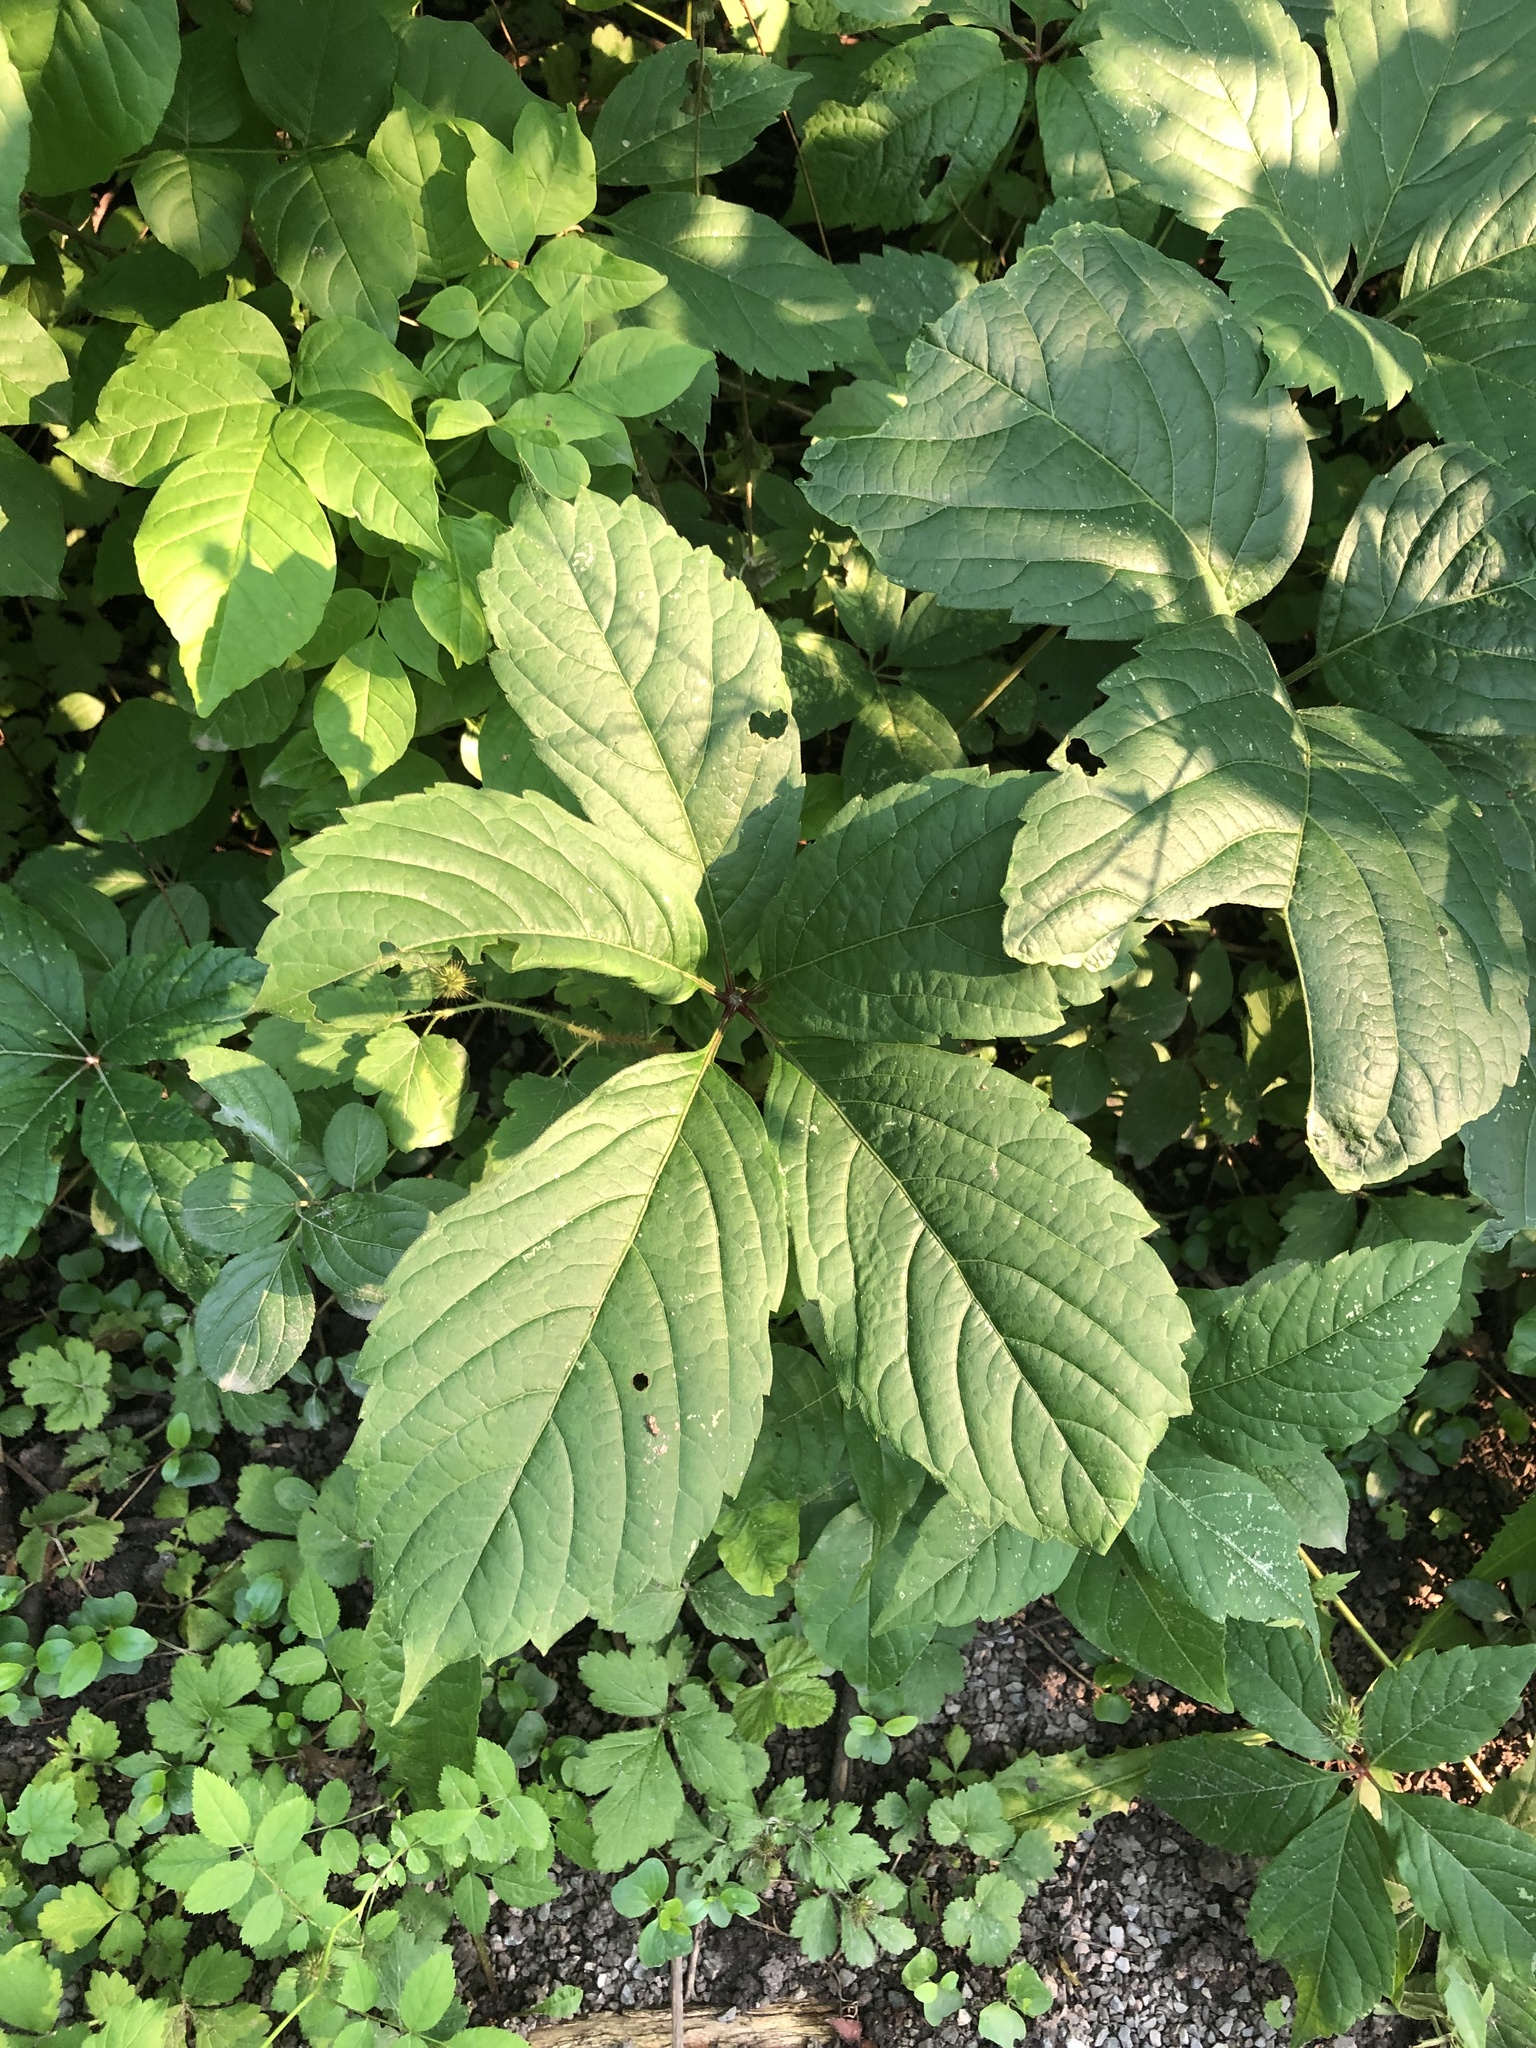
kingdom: Plantae
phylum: Tracheophyta
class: Magnoliopsida
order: Vitales
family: Vitaceae
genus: Parthenocissus
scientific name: Parthenocissus inserta
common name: False virginia-creeper
